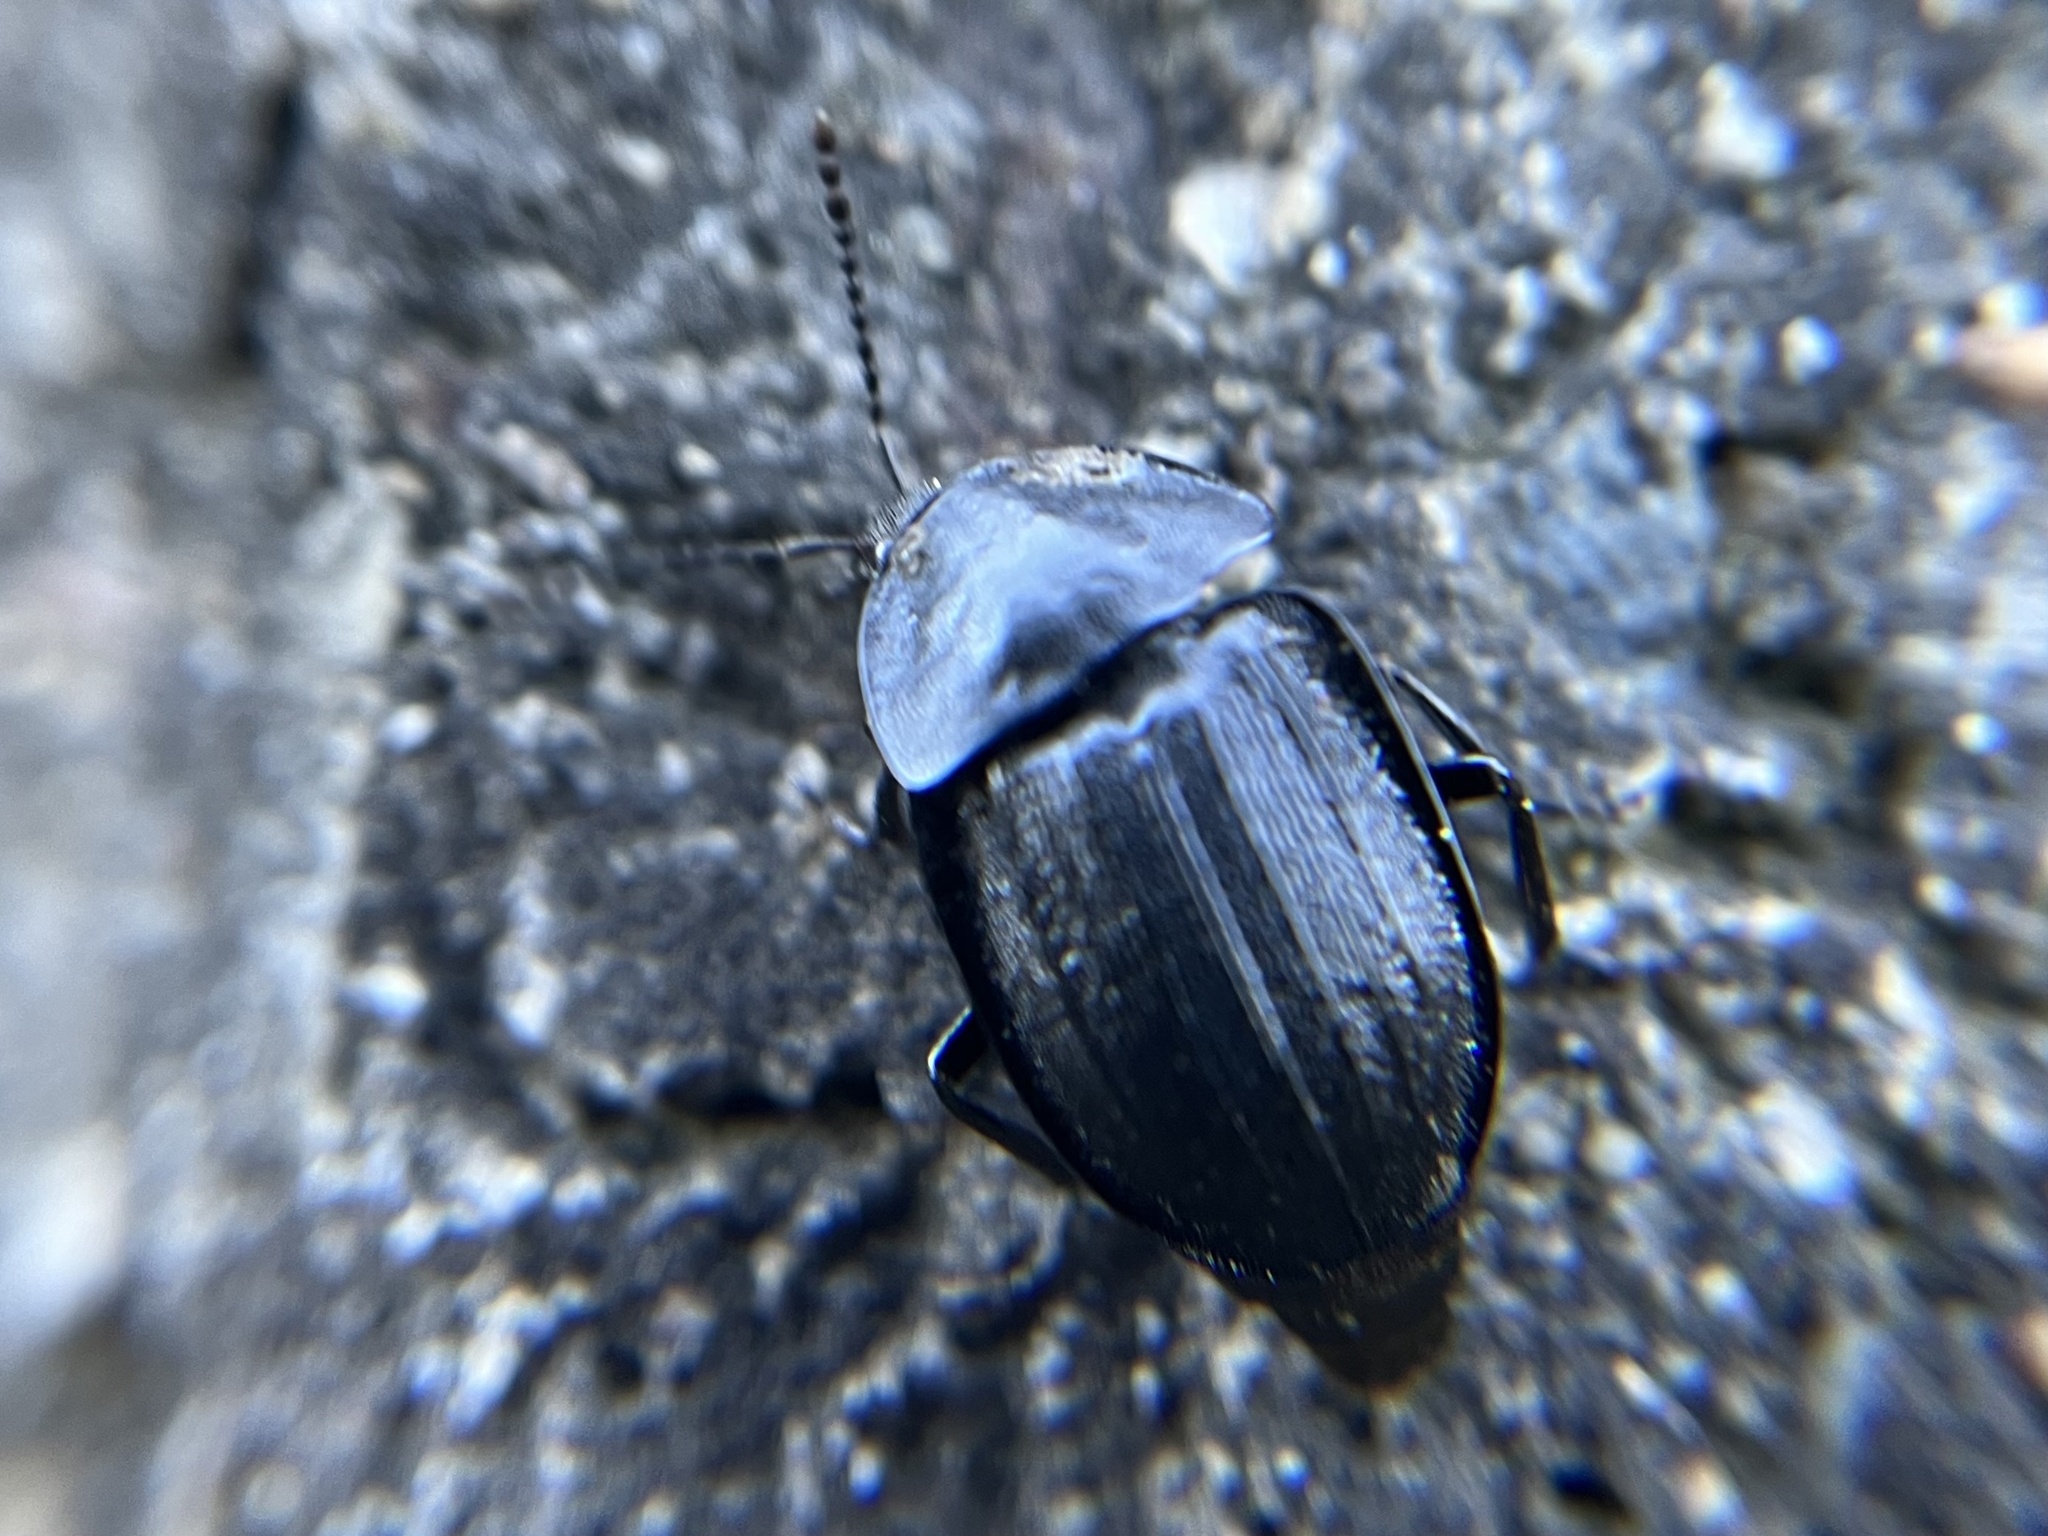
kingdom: Animalia
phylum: Arthropoda
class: Insecta
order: Coleoptera
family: Staphylinidae
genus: Silpha
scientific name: Silpha atrata
